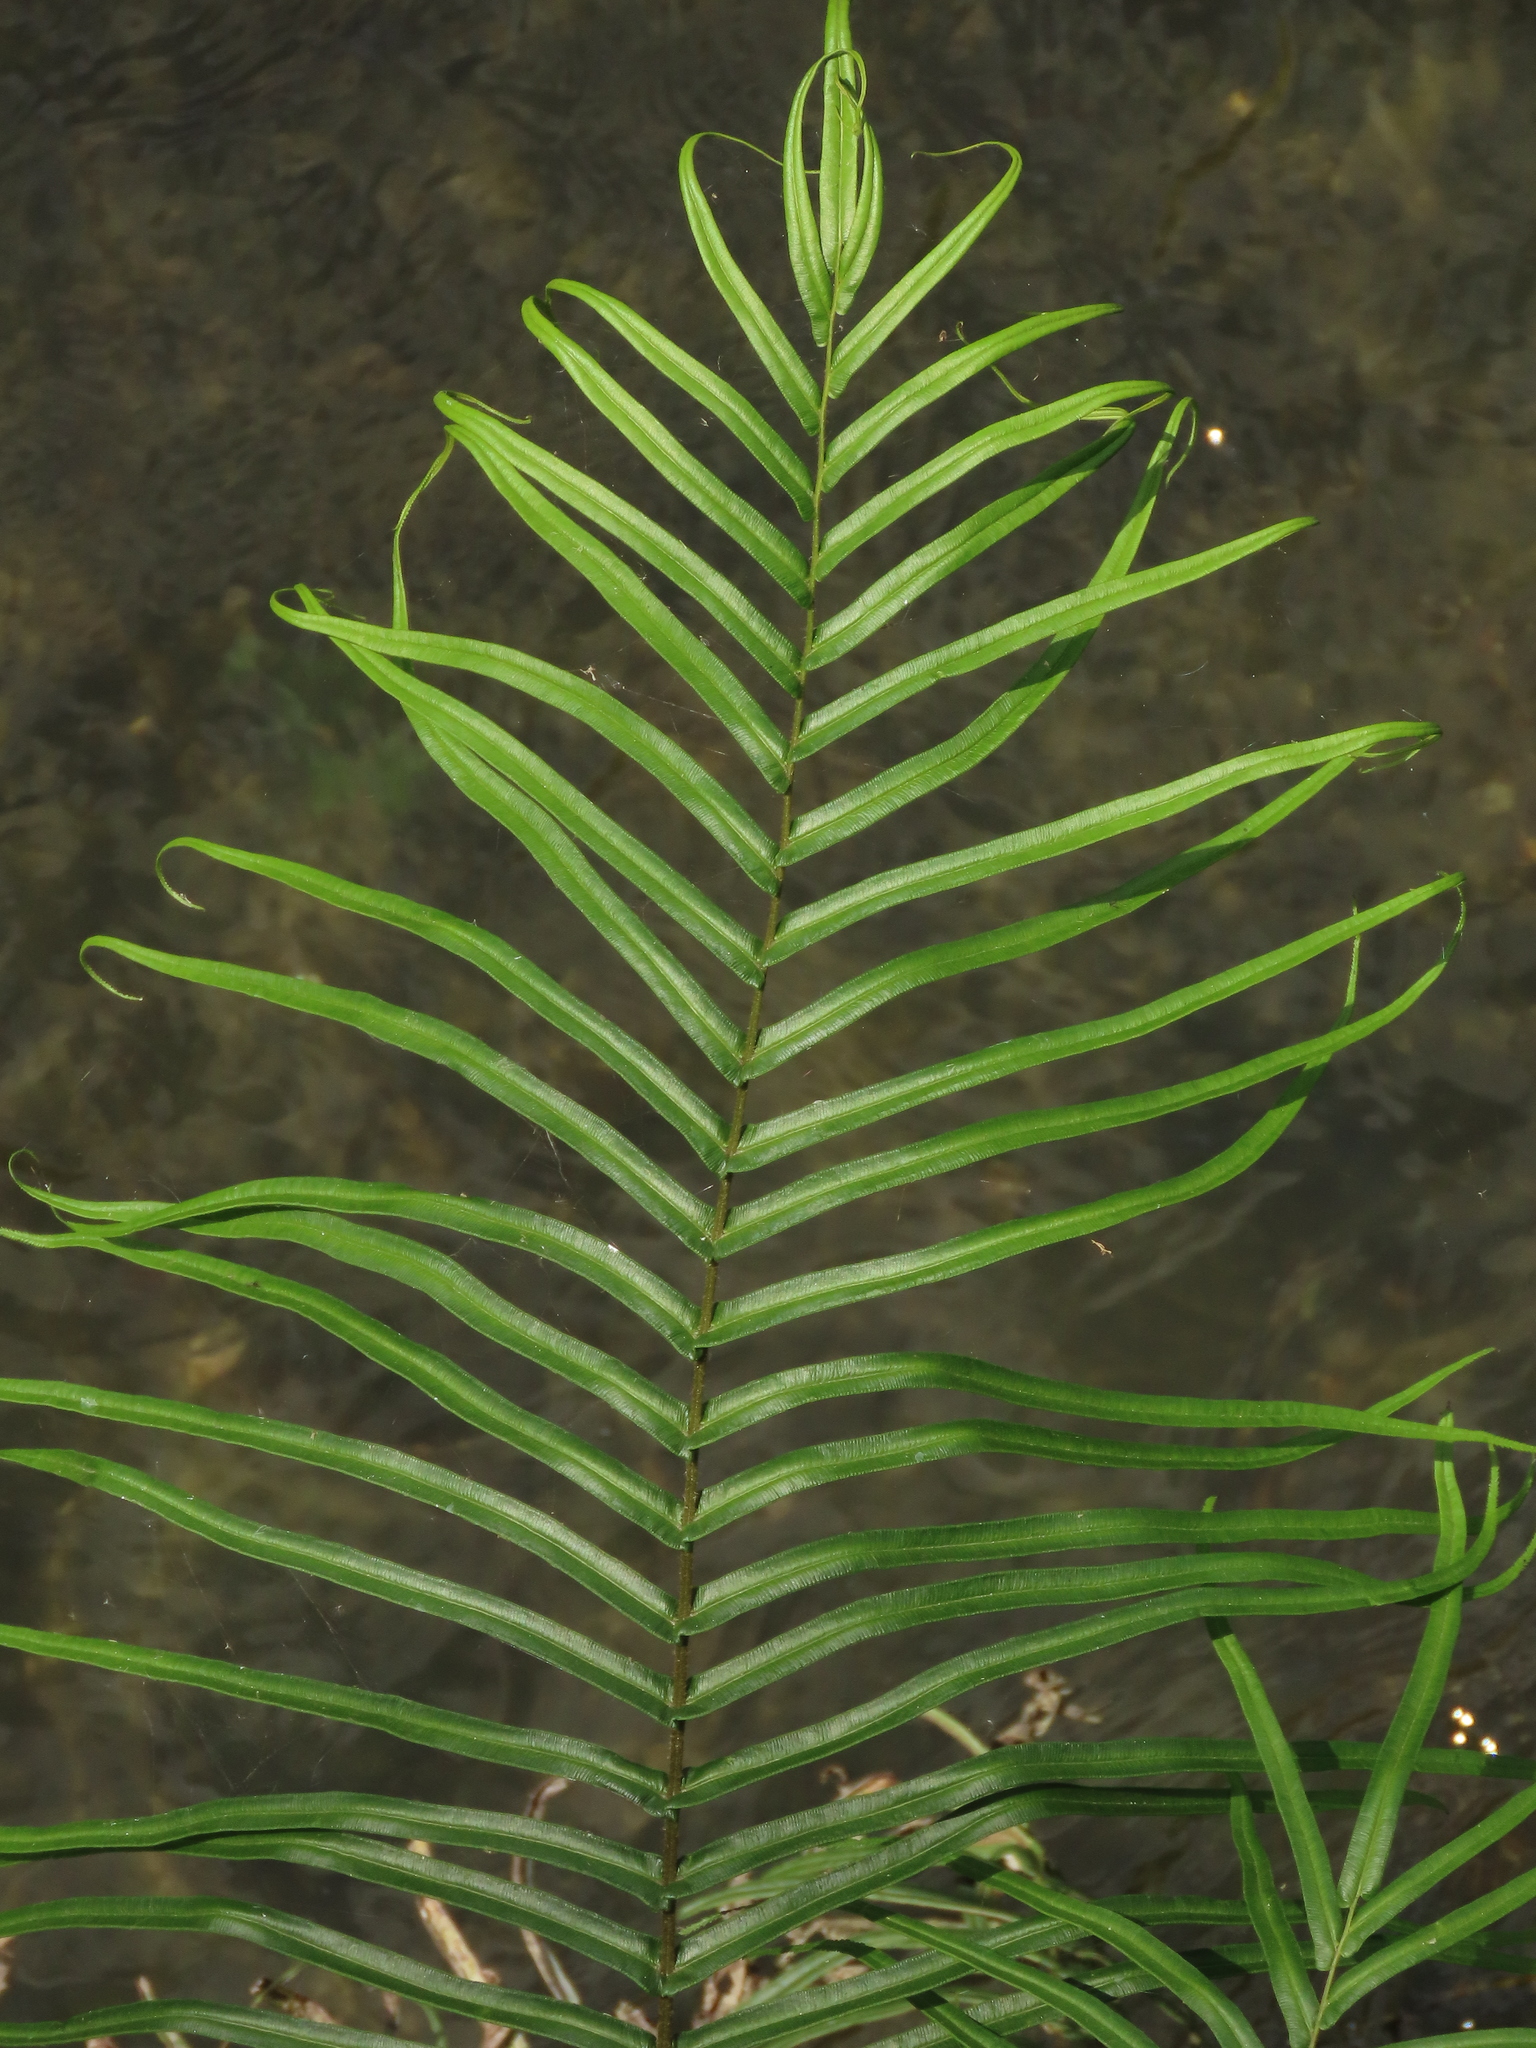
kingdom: Plantae
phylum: Tracheophyta
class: Polypodiopsida
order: Polypodiales
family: Pteridaceae
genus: Pteris
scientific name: Pteris vittata
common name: Ladder brake
